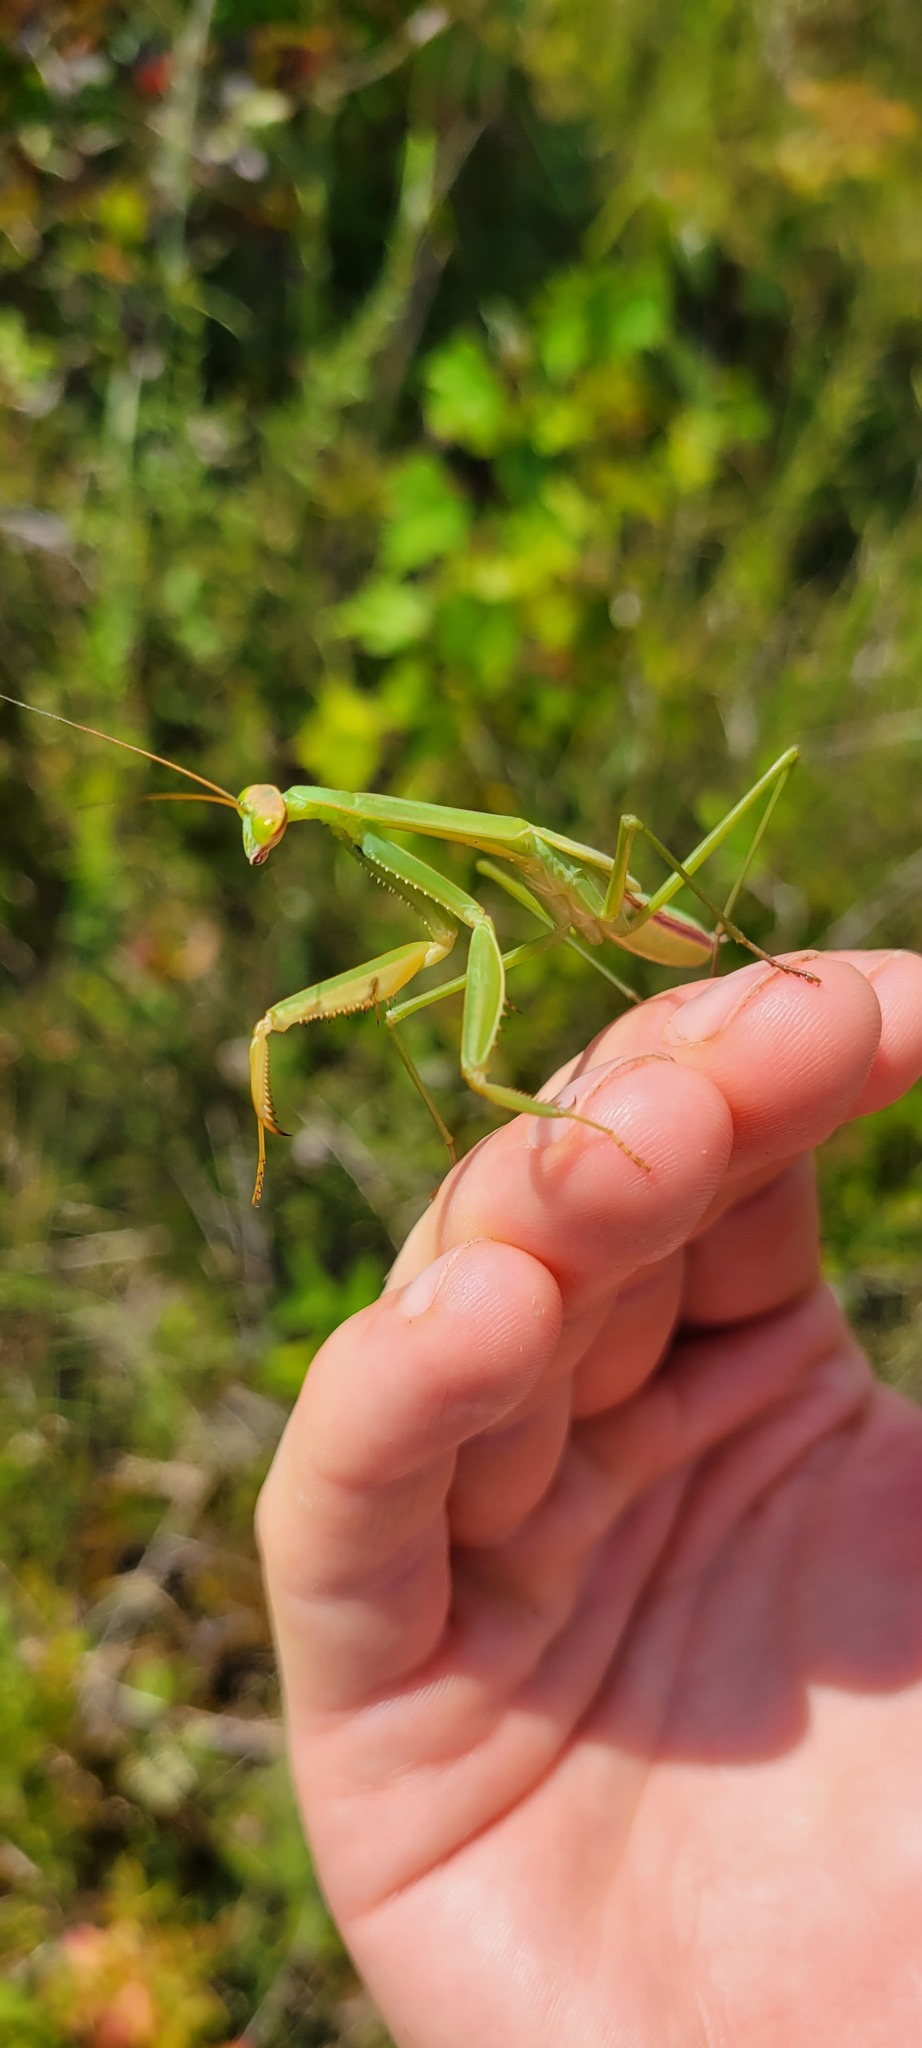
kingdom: Animalia
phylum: Arthropoda
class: Insecta
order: Mantodea
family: Mantidae
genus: Tenodera
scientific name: Tenodera sinensis
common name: Chinese mantis
